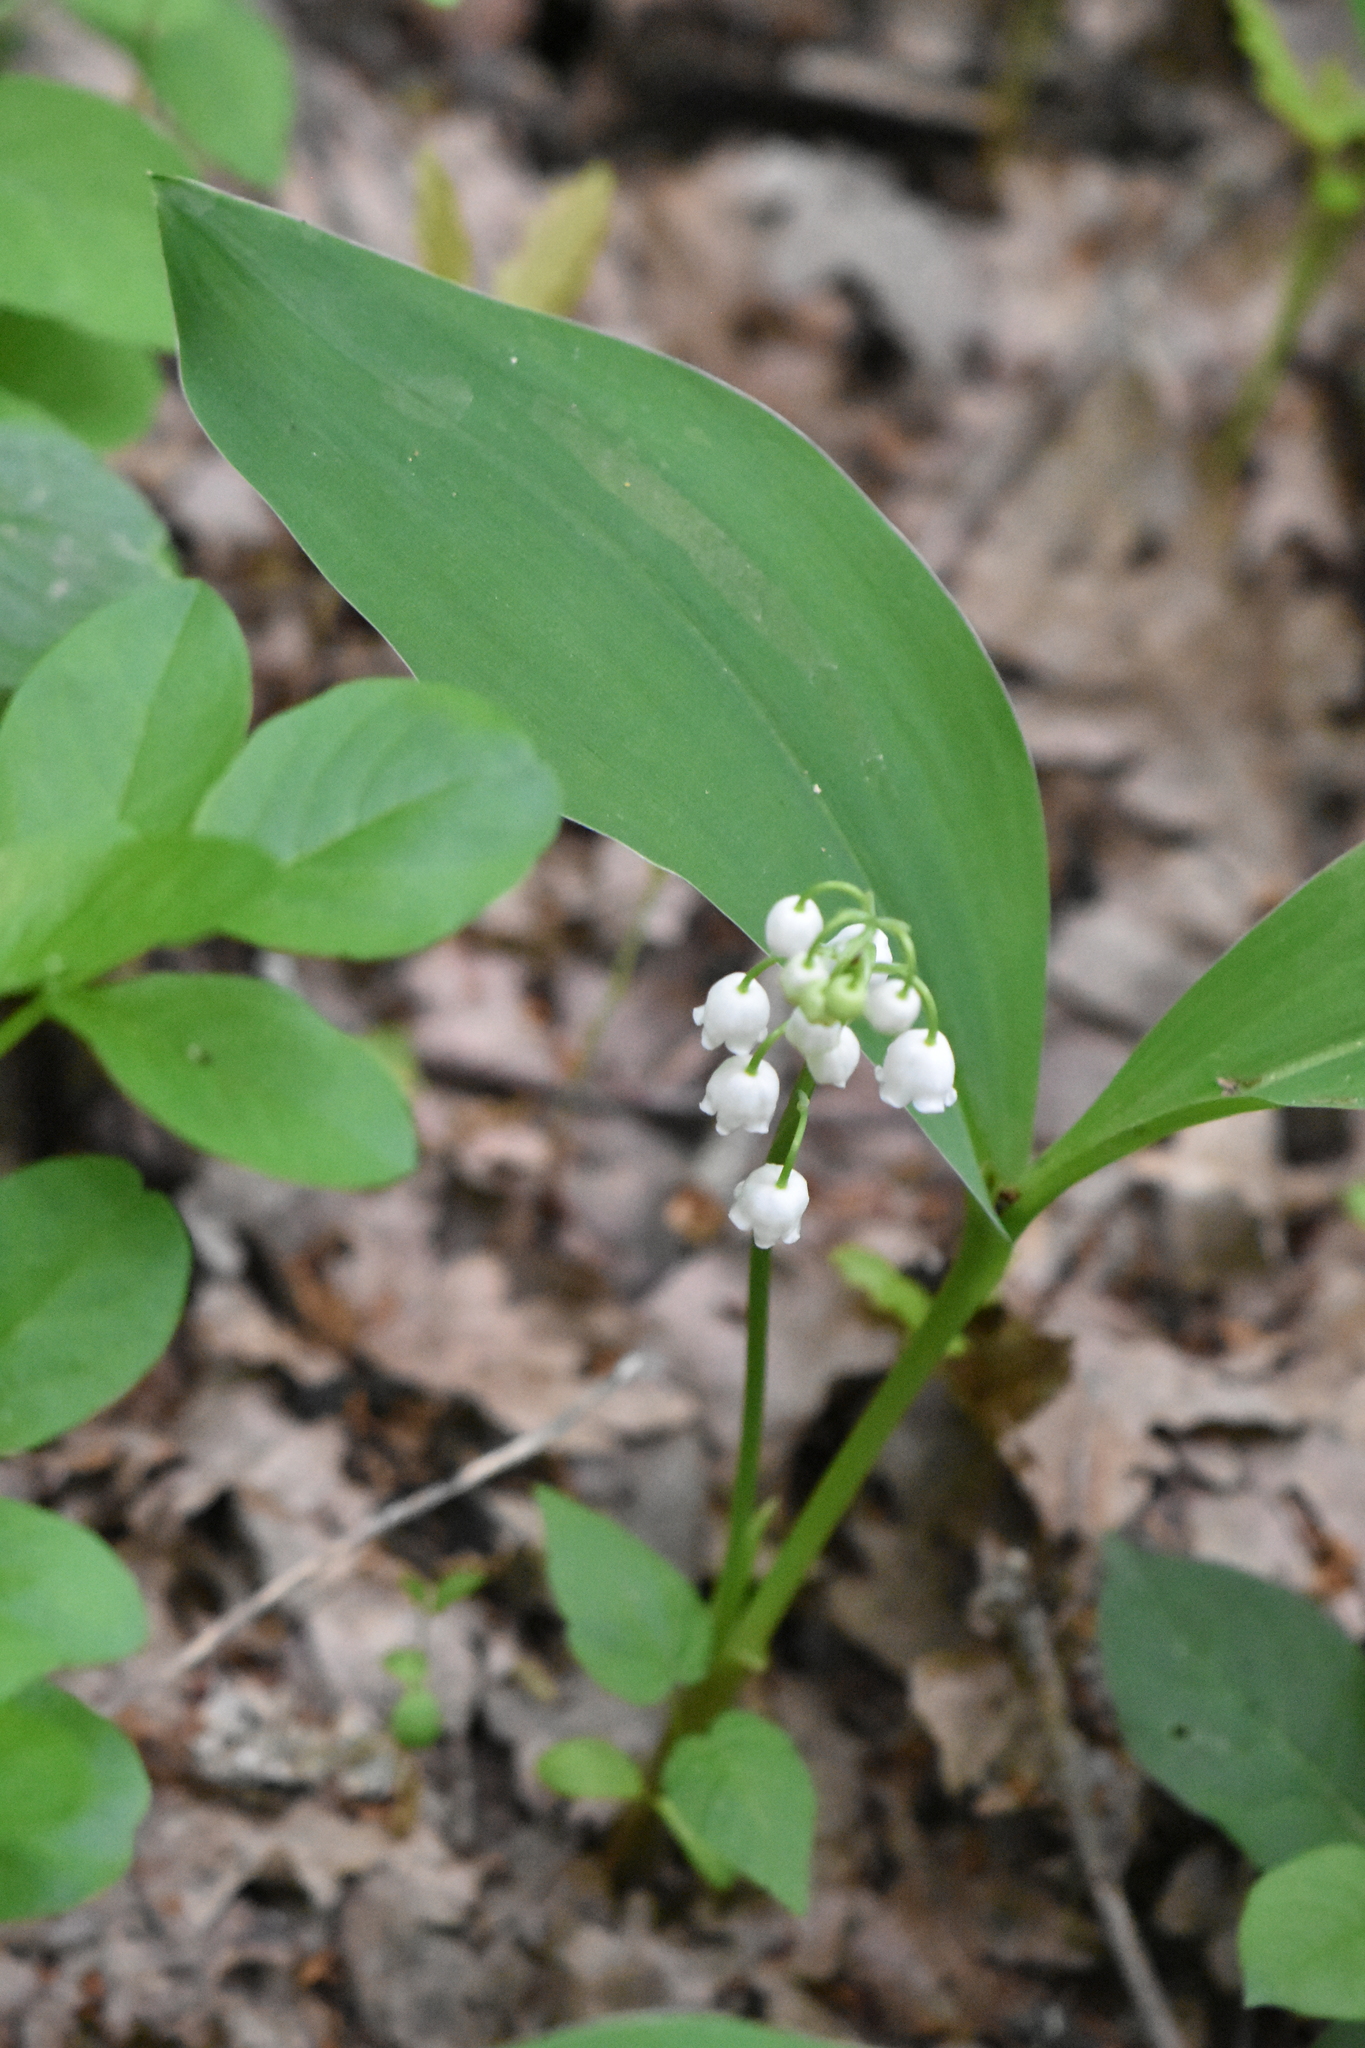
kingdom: Plantae
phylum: Tracheophyta
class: Liliopsida
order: Asparagales
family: Asparagaceae
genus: Convallaria
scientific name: Convallaria majalis
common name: Lily-of-the-valley
